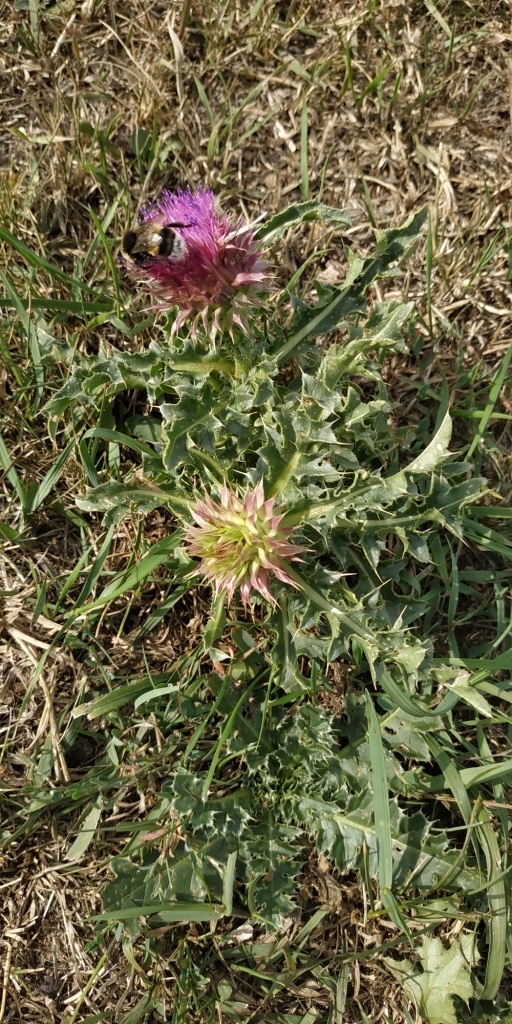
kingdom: Plantae
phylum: Tracheophyta
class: Magnoliopsida
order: Asterales
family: Asteraceae
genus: Carduus
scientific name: Carduus nutans
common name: Musk thistle
